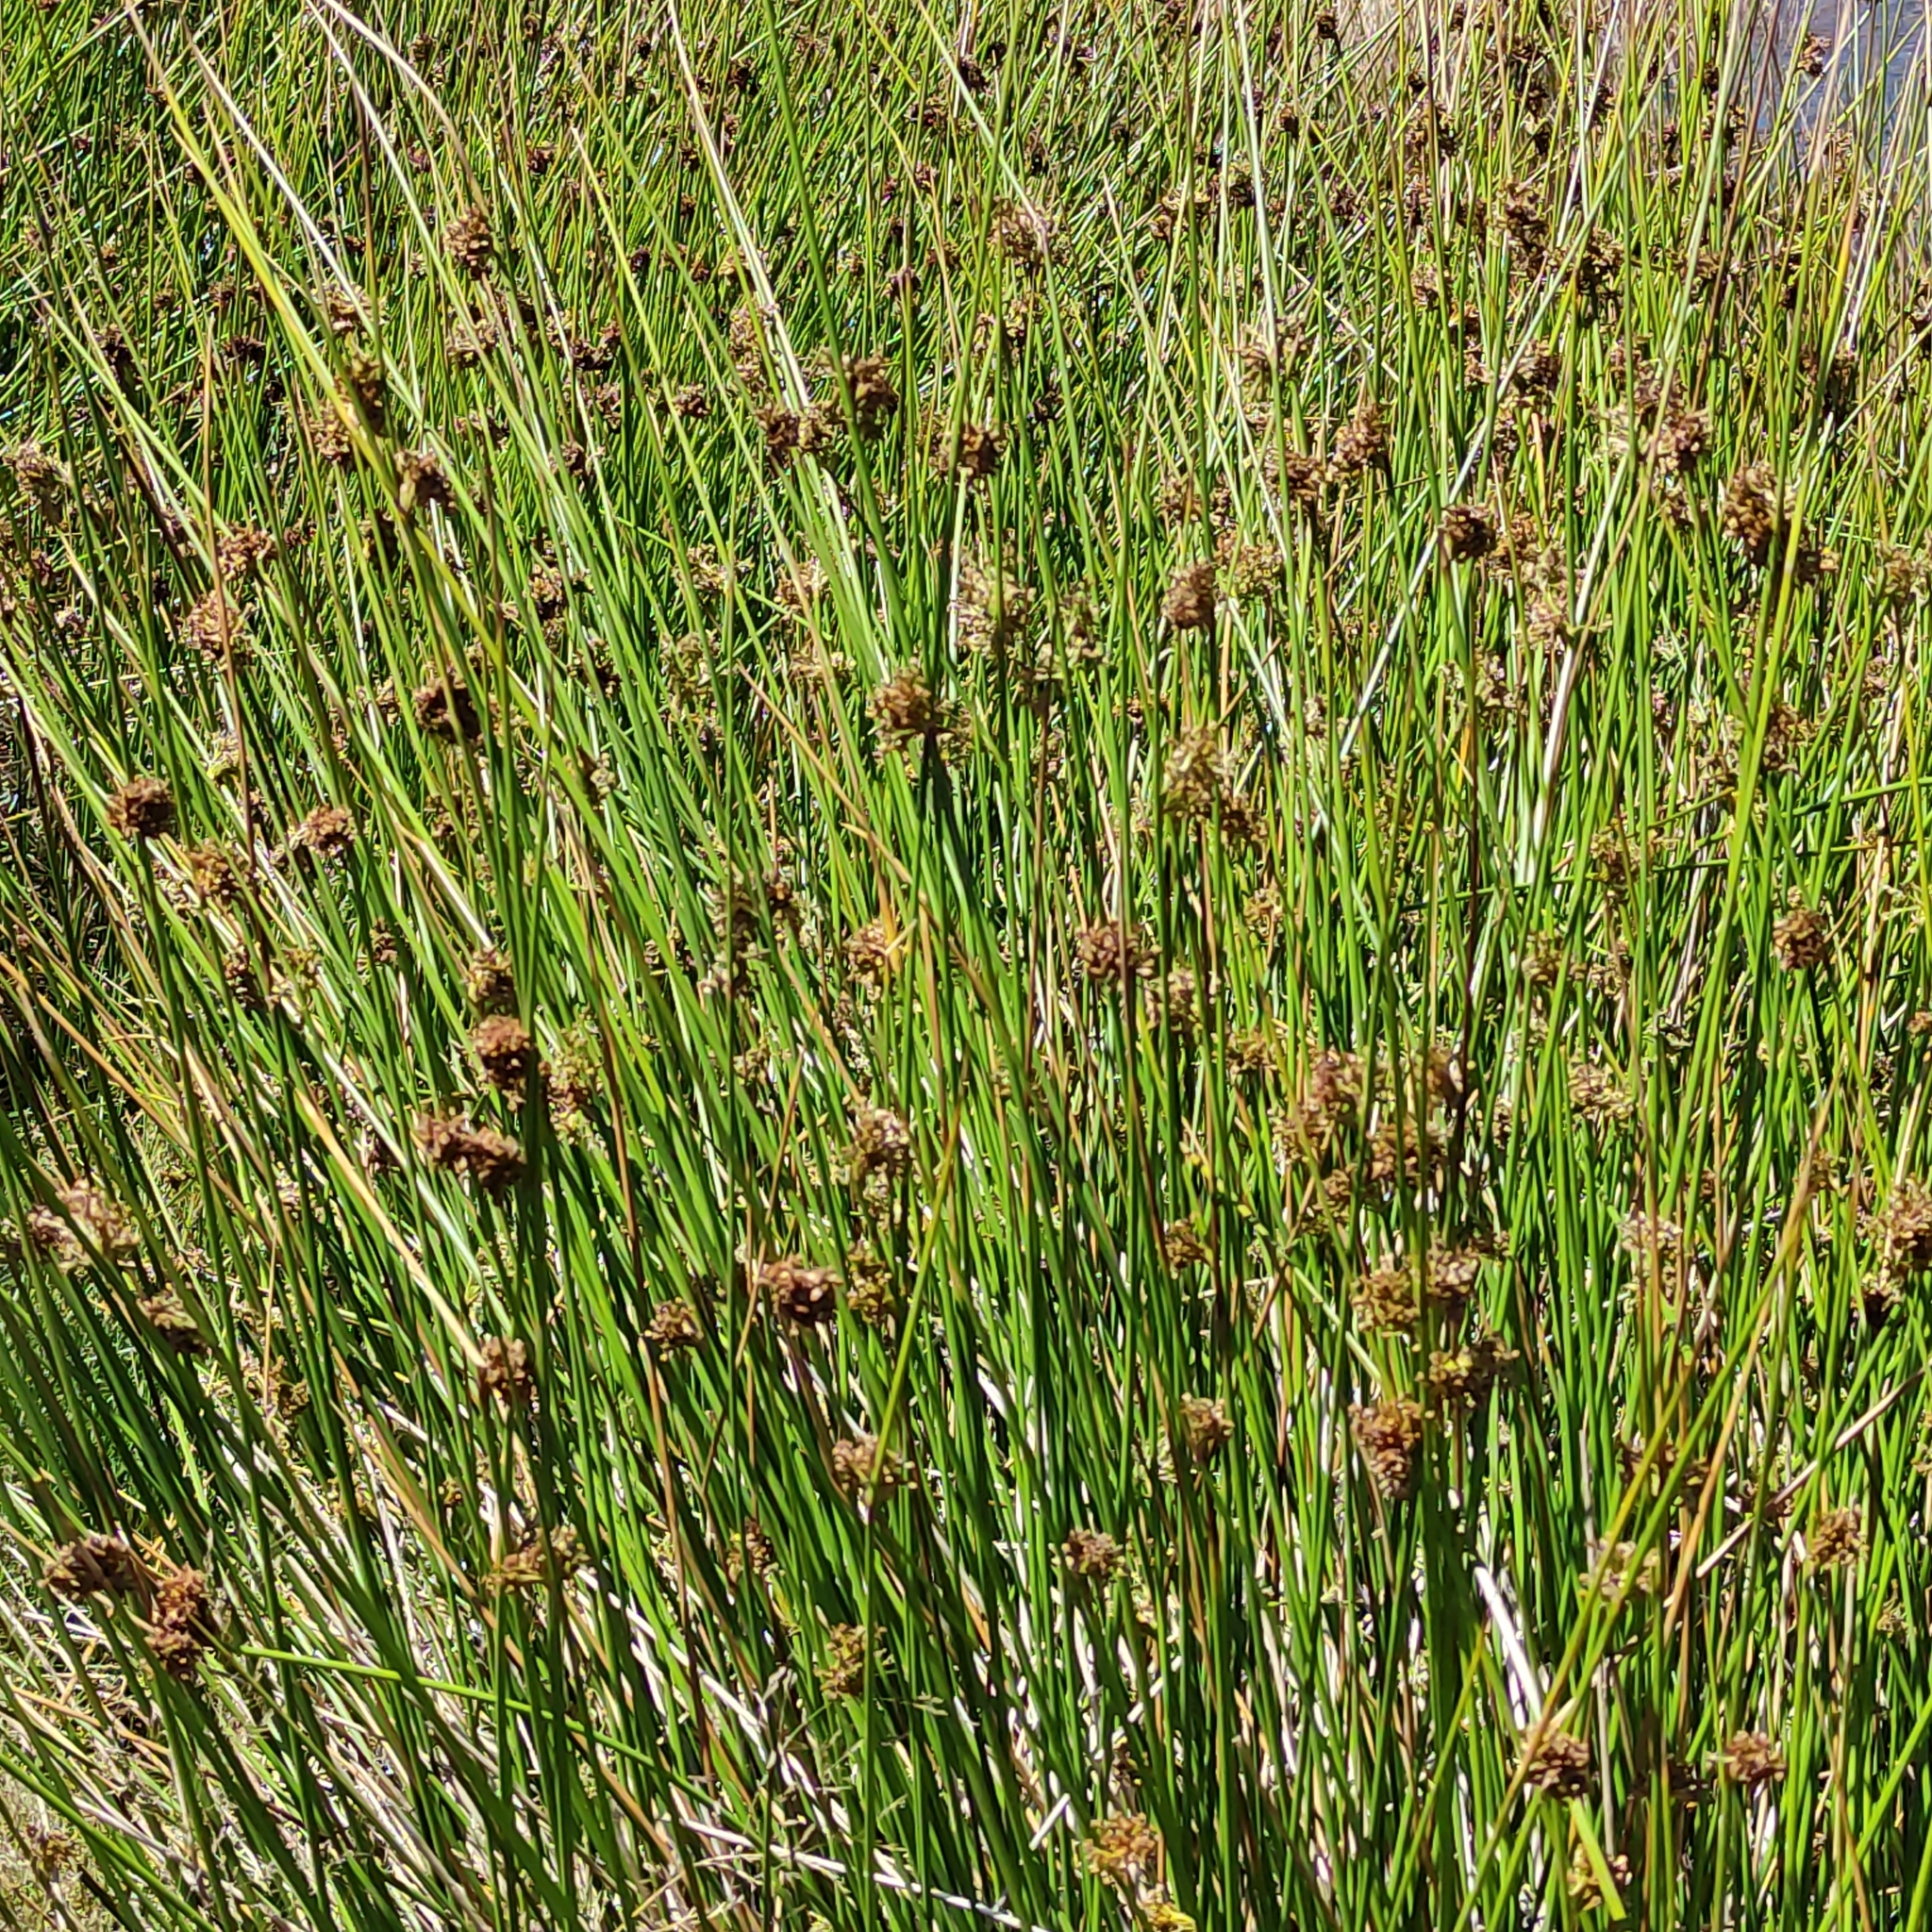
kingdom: Plantae
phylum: Tracheophyta
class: Liliopsida
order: Poales
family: Juncaceae
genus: Juncus
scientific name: Juncus edgariae
